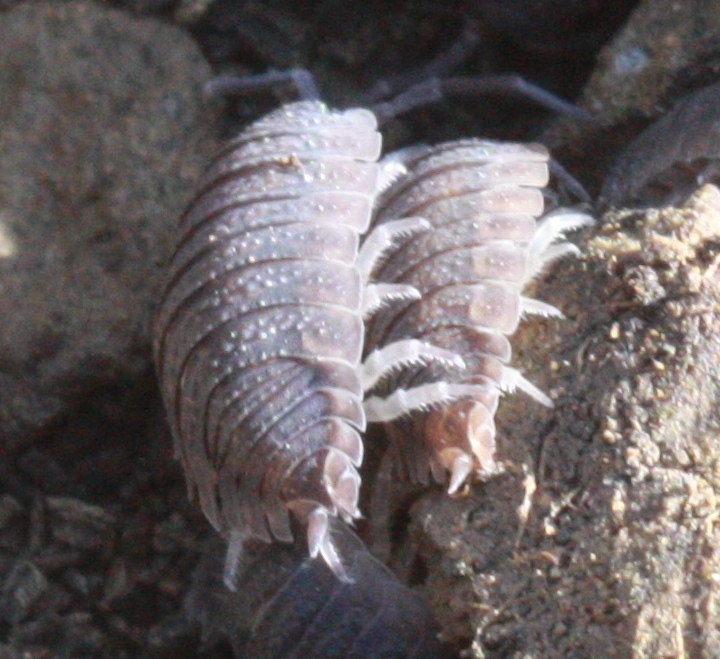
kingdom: Animalia
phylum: Arthropoda
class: Malacostraca
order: Isopoda
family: Porcellionidae
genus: Porcellio
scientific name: Porcellio scaber
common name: Common rough woodlouse
